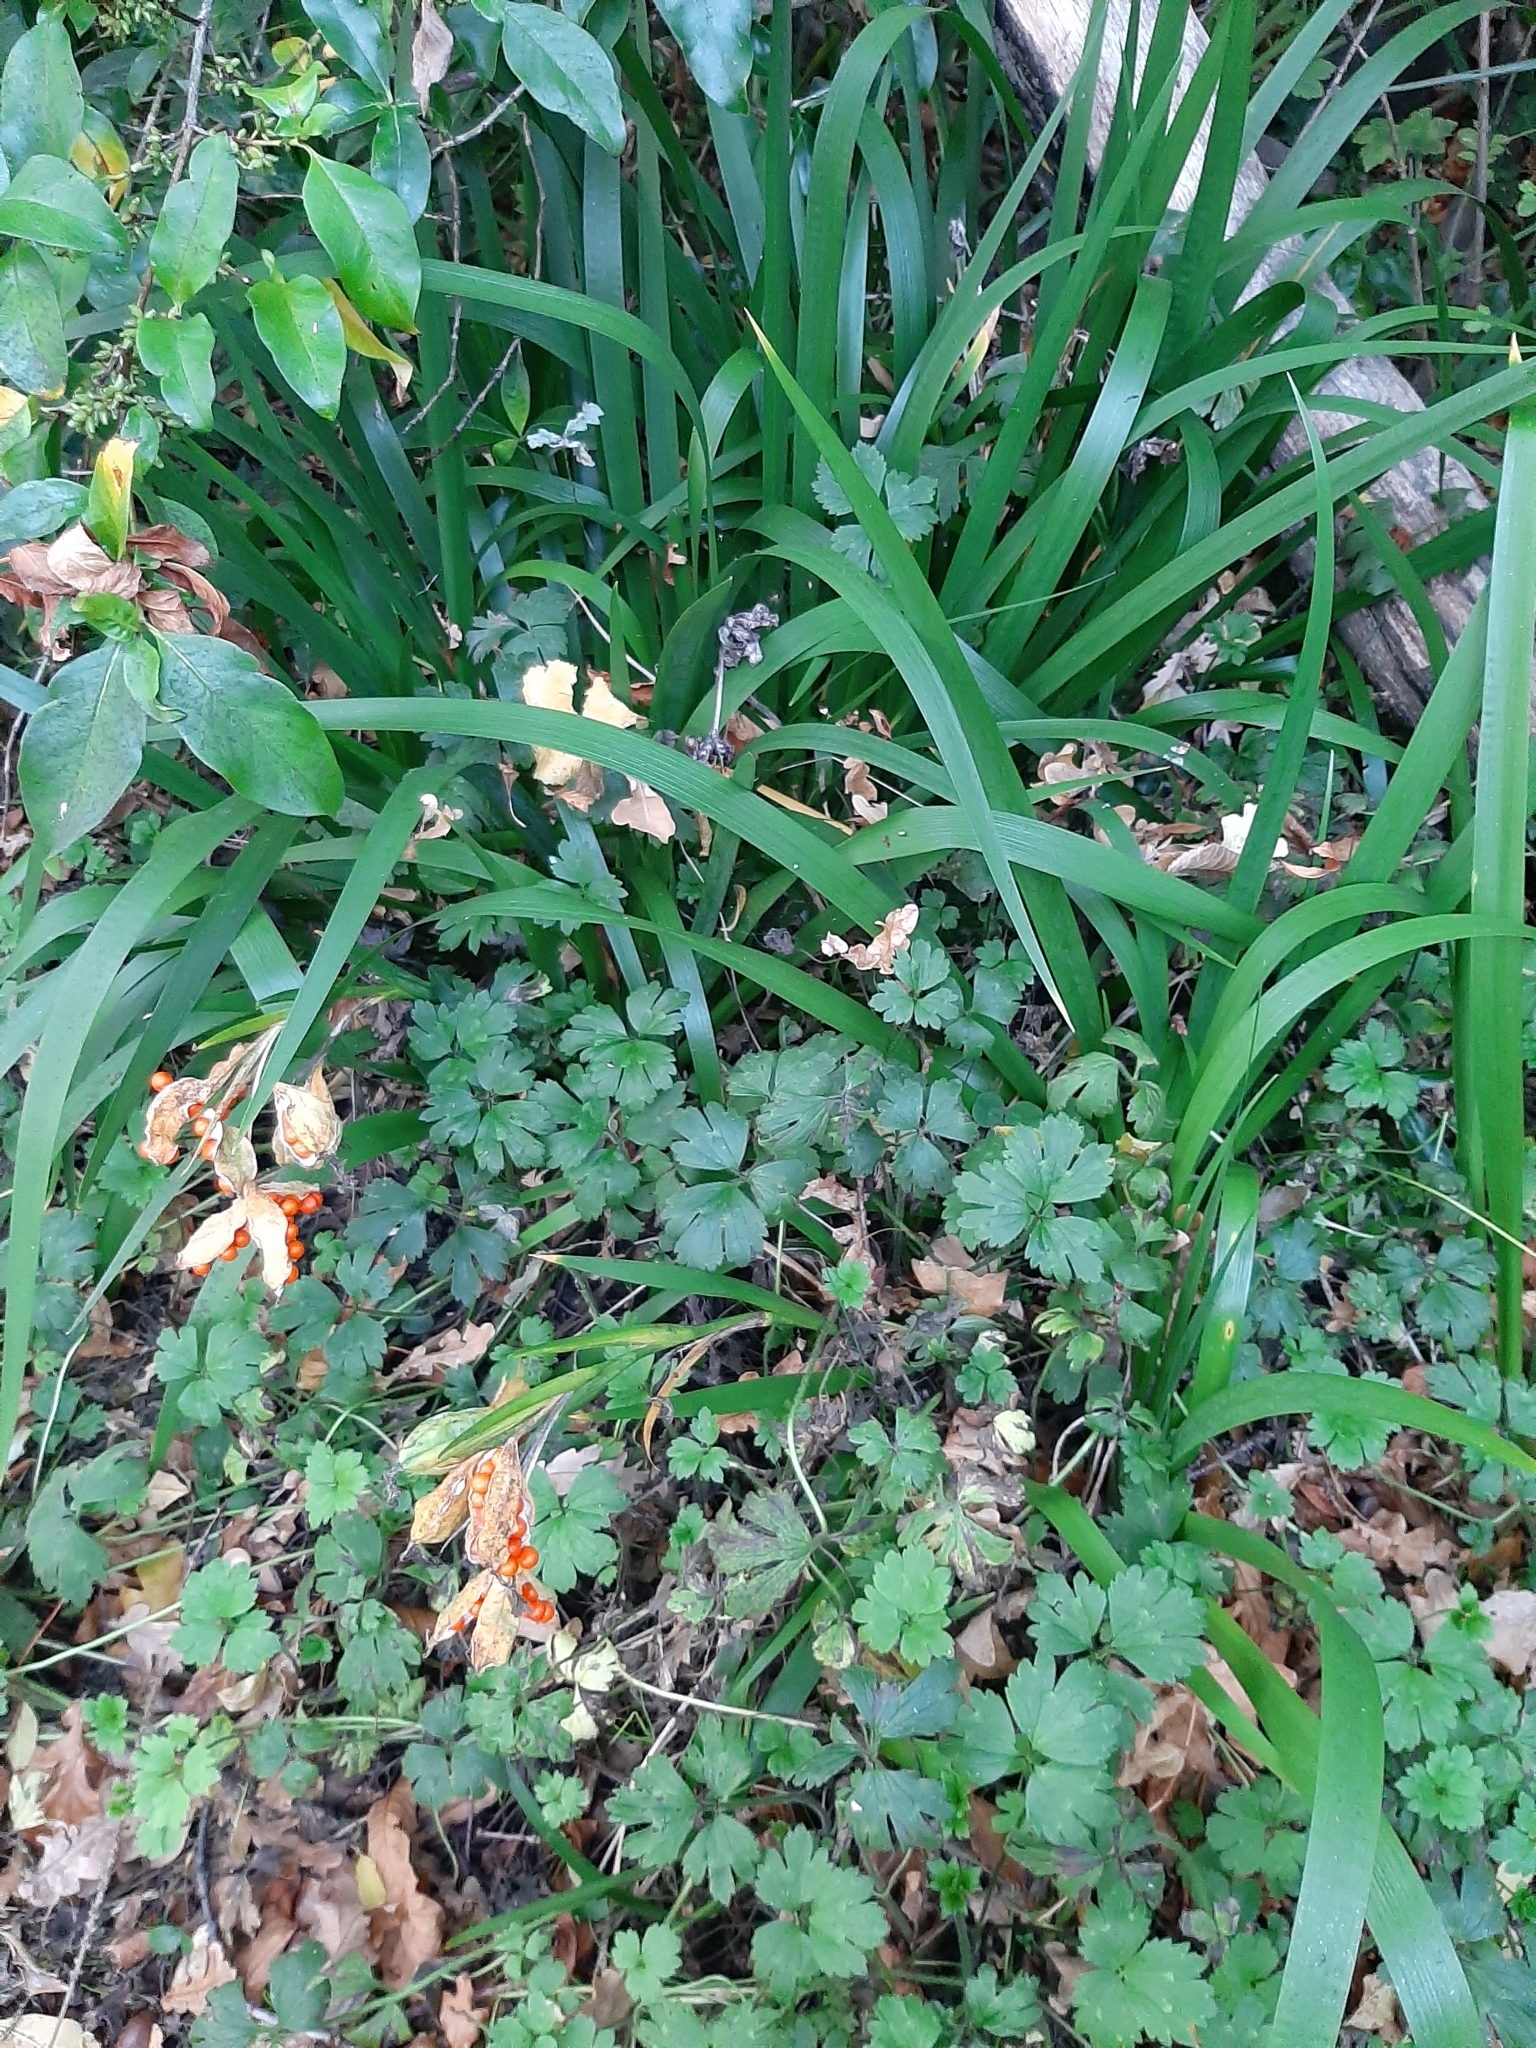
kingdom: Plantae
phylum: Tracheophyta
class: Liliopsida
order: Asparagales
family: Iridaceae
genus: Iris
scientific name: Iris foetidissima
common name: Stinking iris
